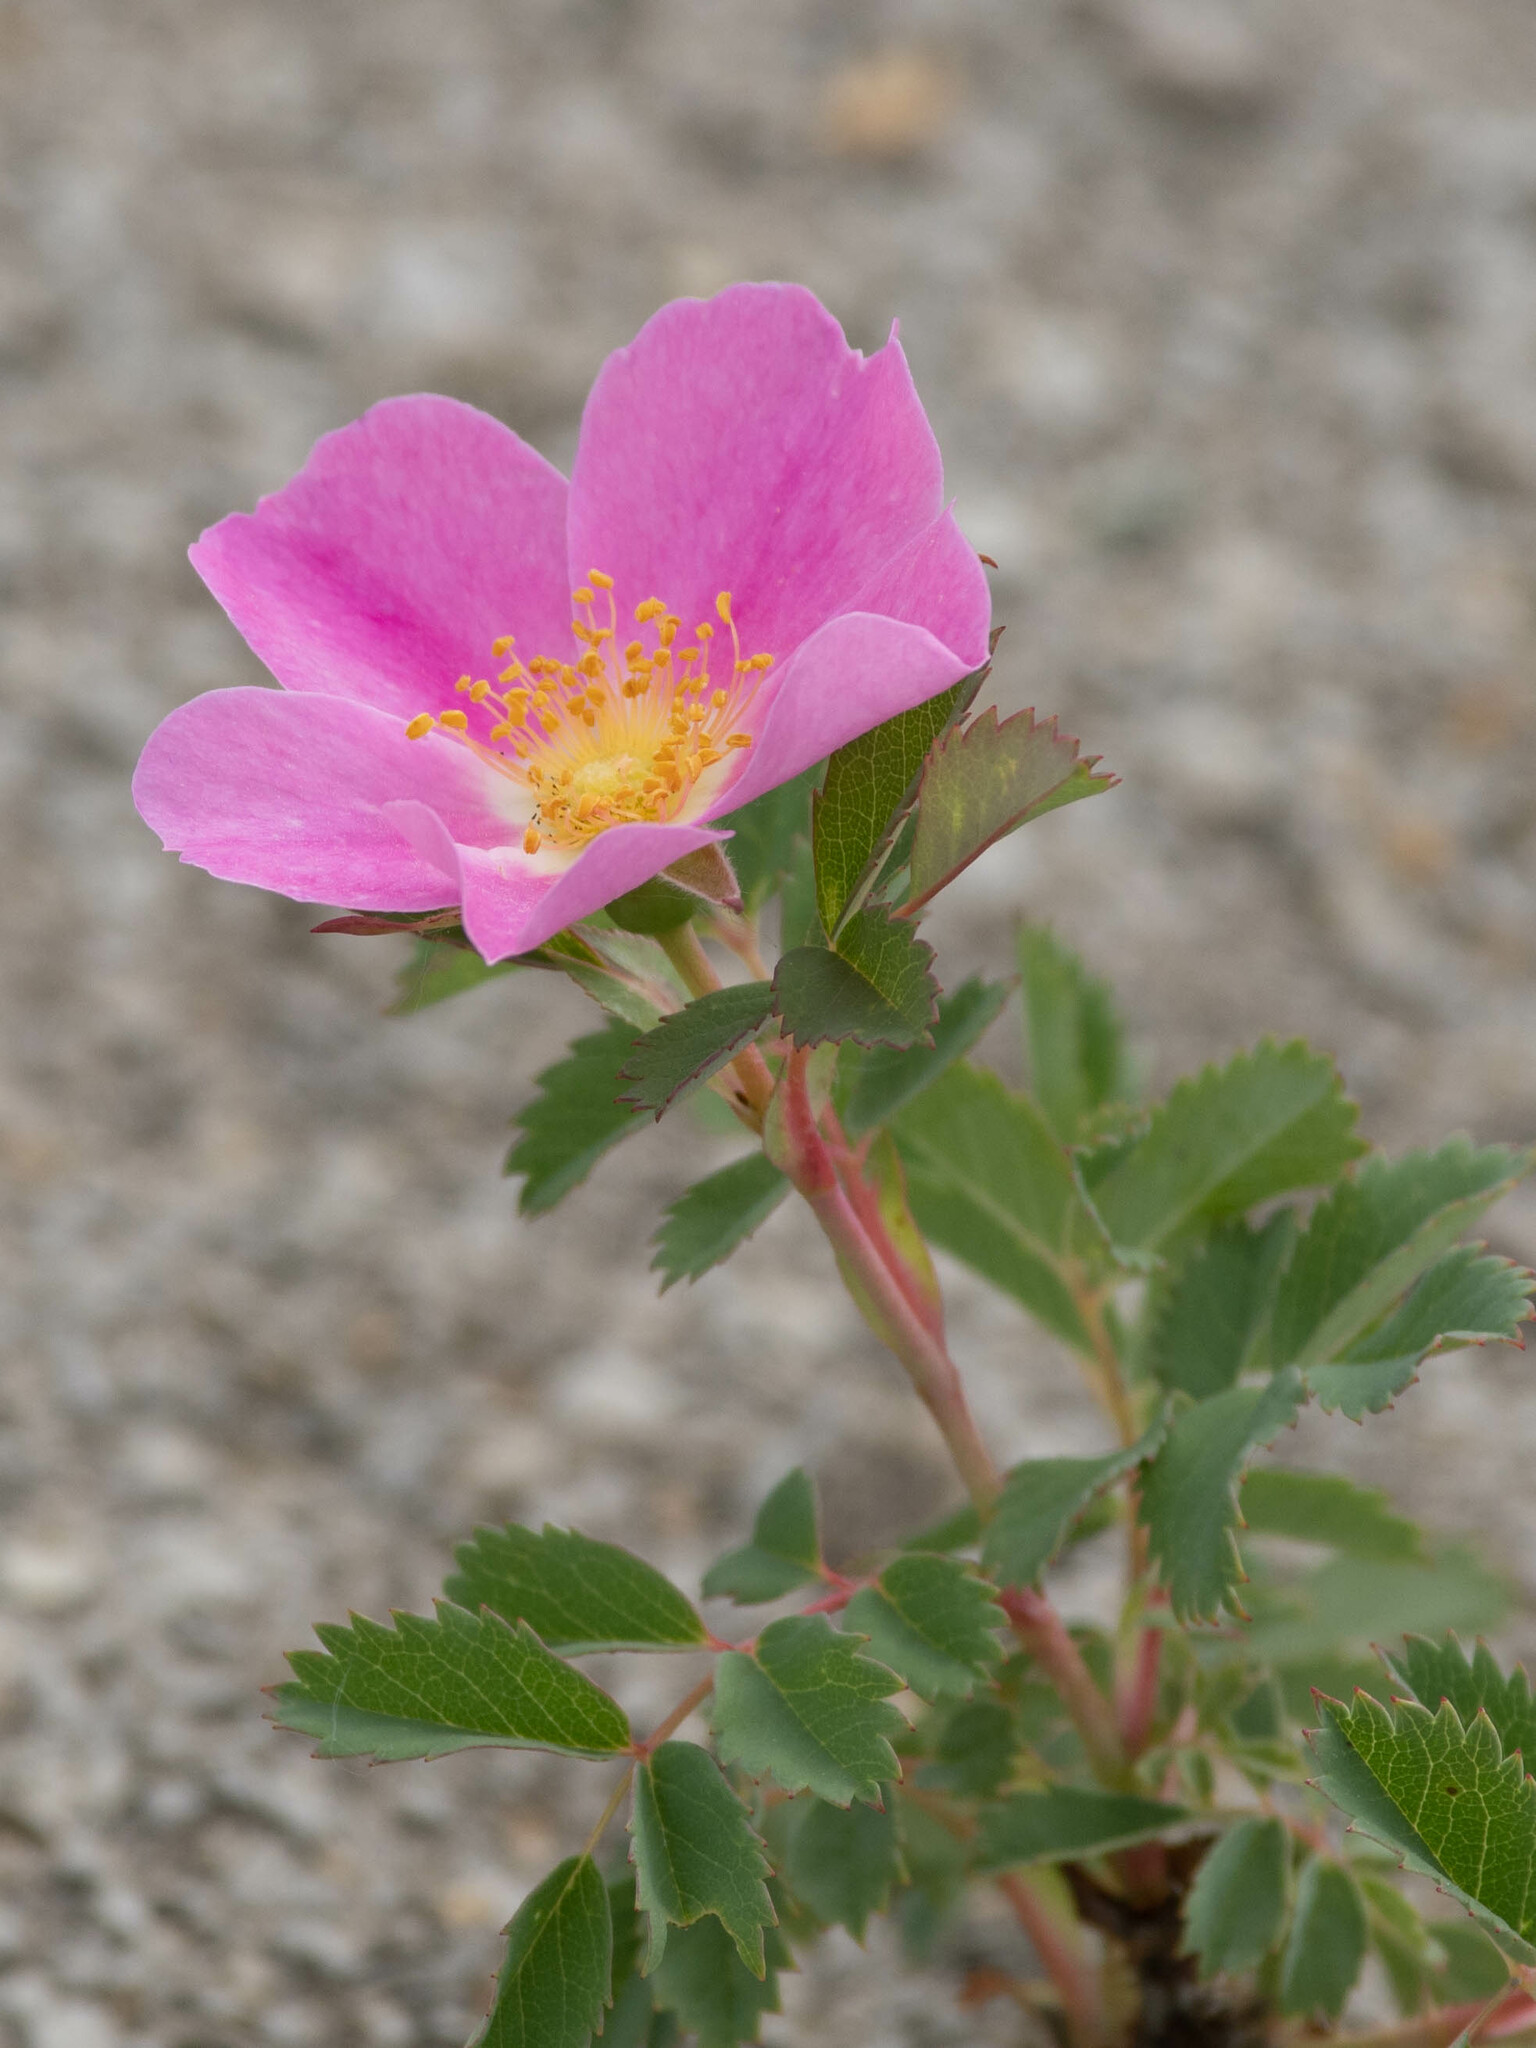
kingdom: Plantae
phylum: Tracheophyta
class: Magnoliopsida
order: Rosales
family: Rosaceae
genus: Rosa
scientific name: Rosa arkansana
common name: Prairie rose
